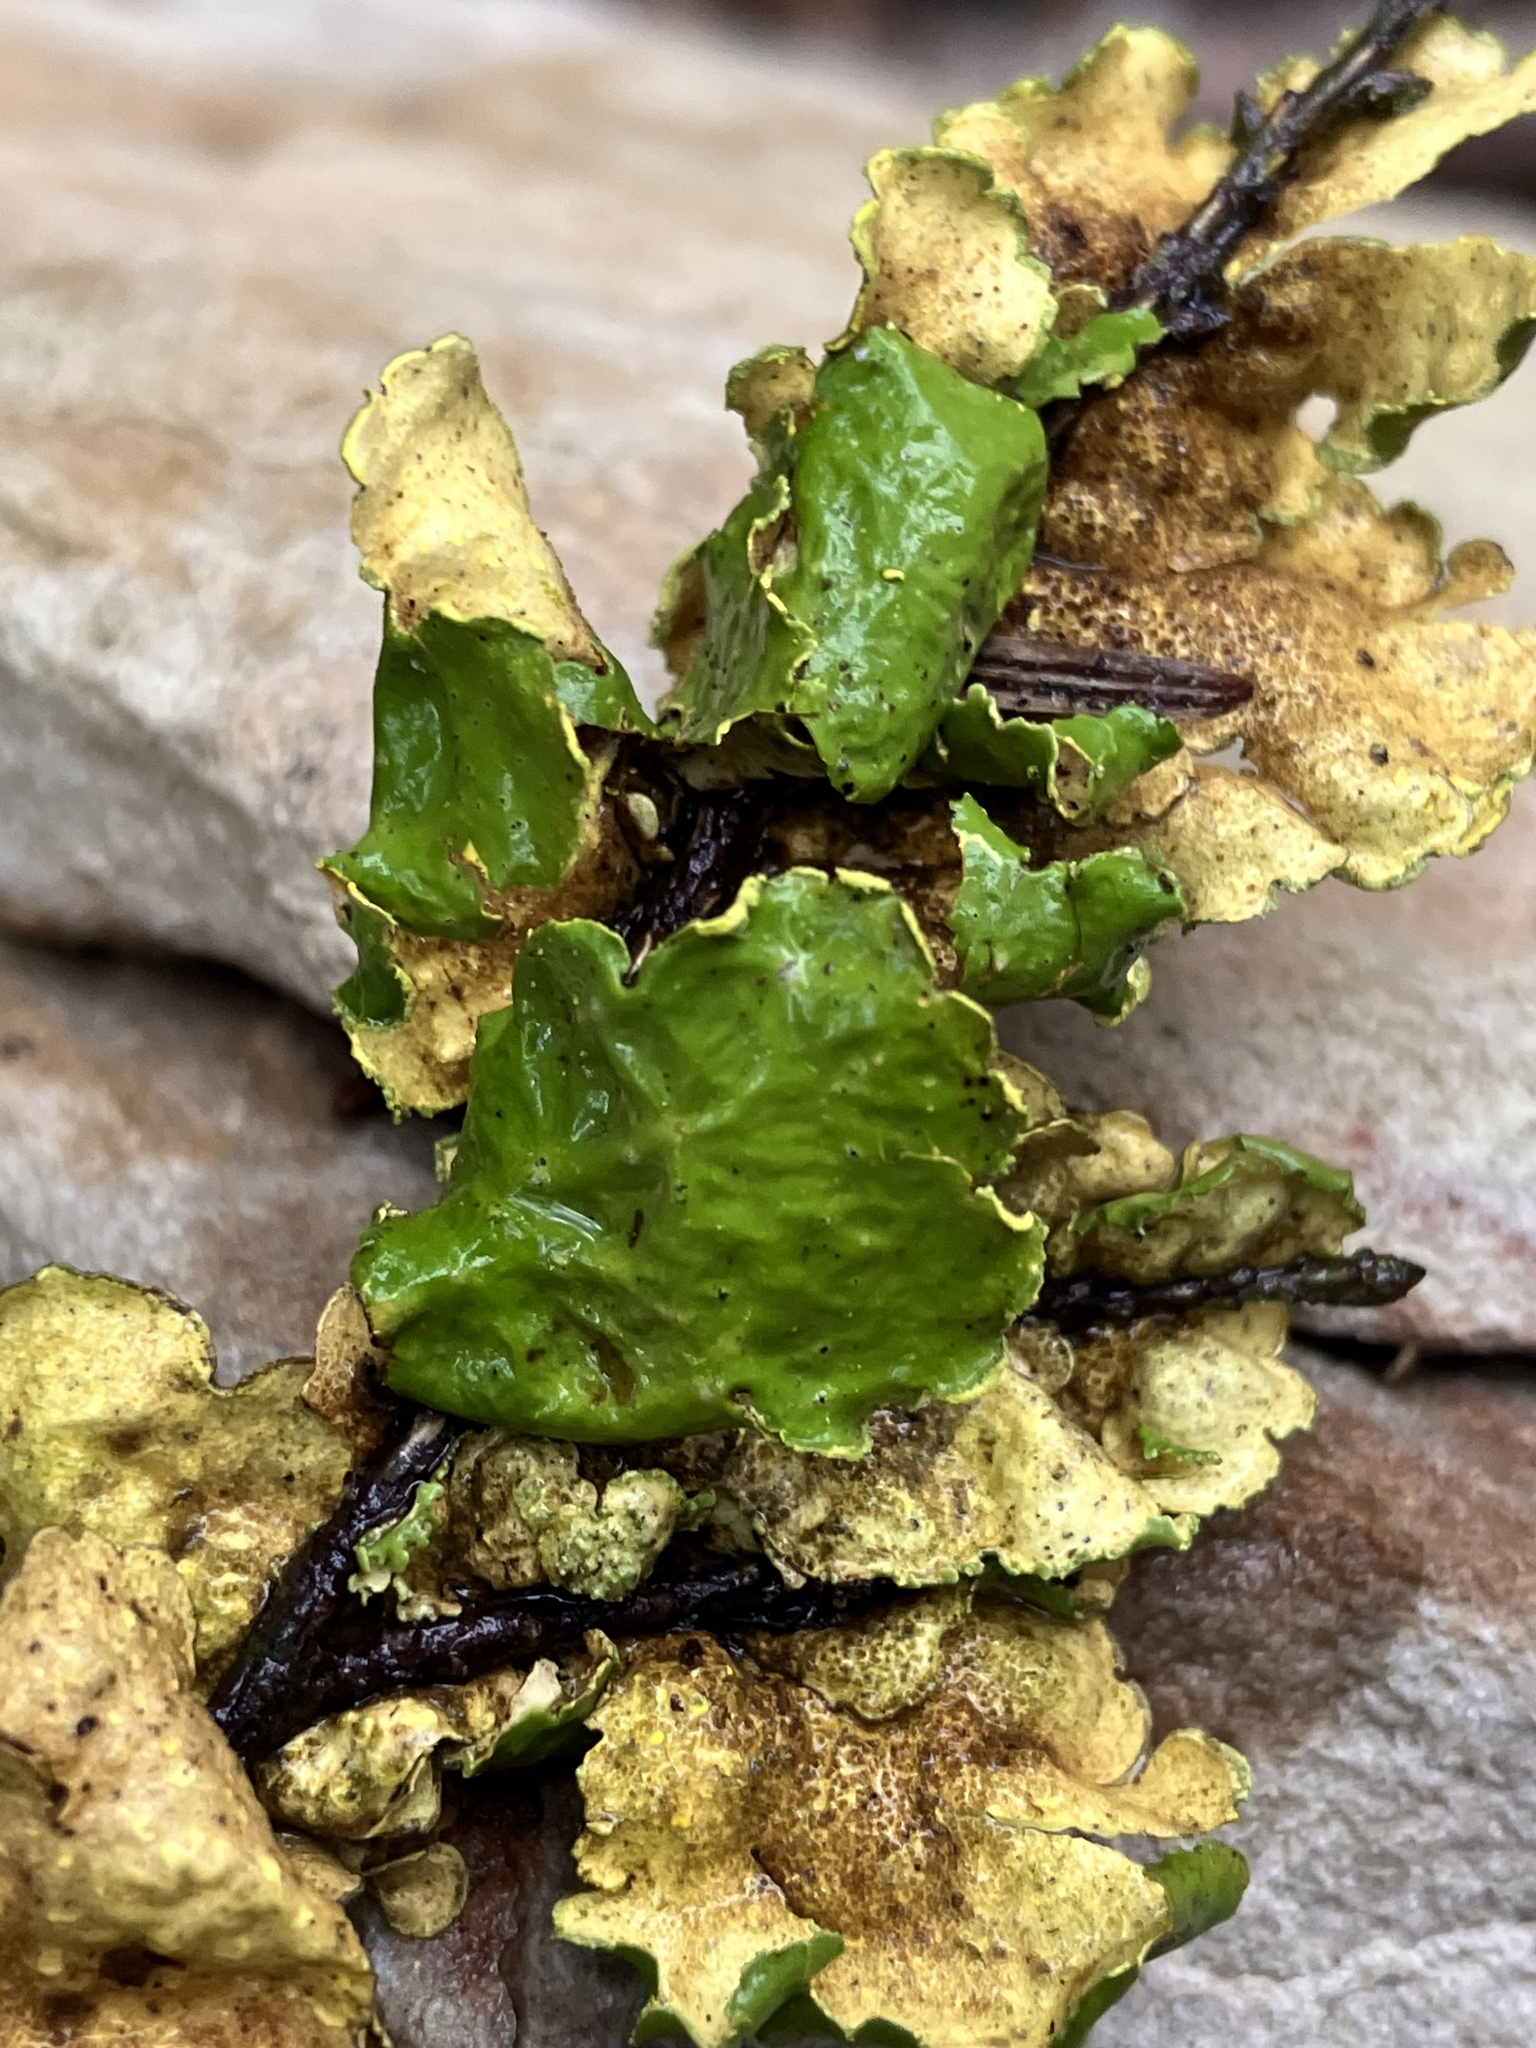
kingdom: Fungi
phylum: Ascomycota
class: Lecanoromycetes
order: Peltigerales
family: Lobariaceae
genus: Pseudocyphellaria
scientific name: Pseudocyphellaria aurata
